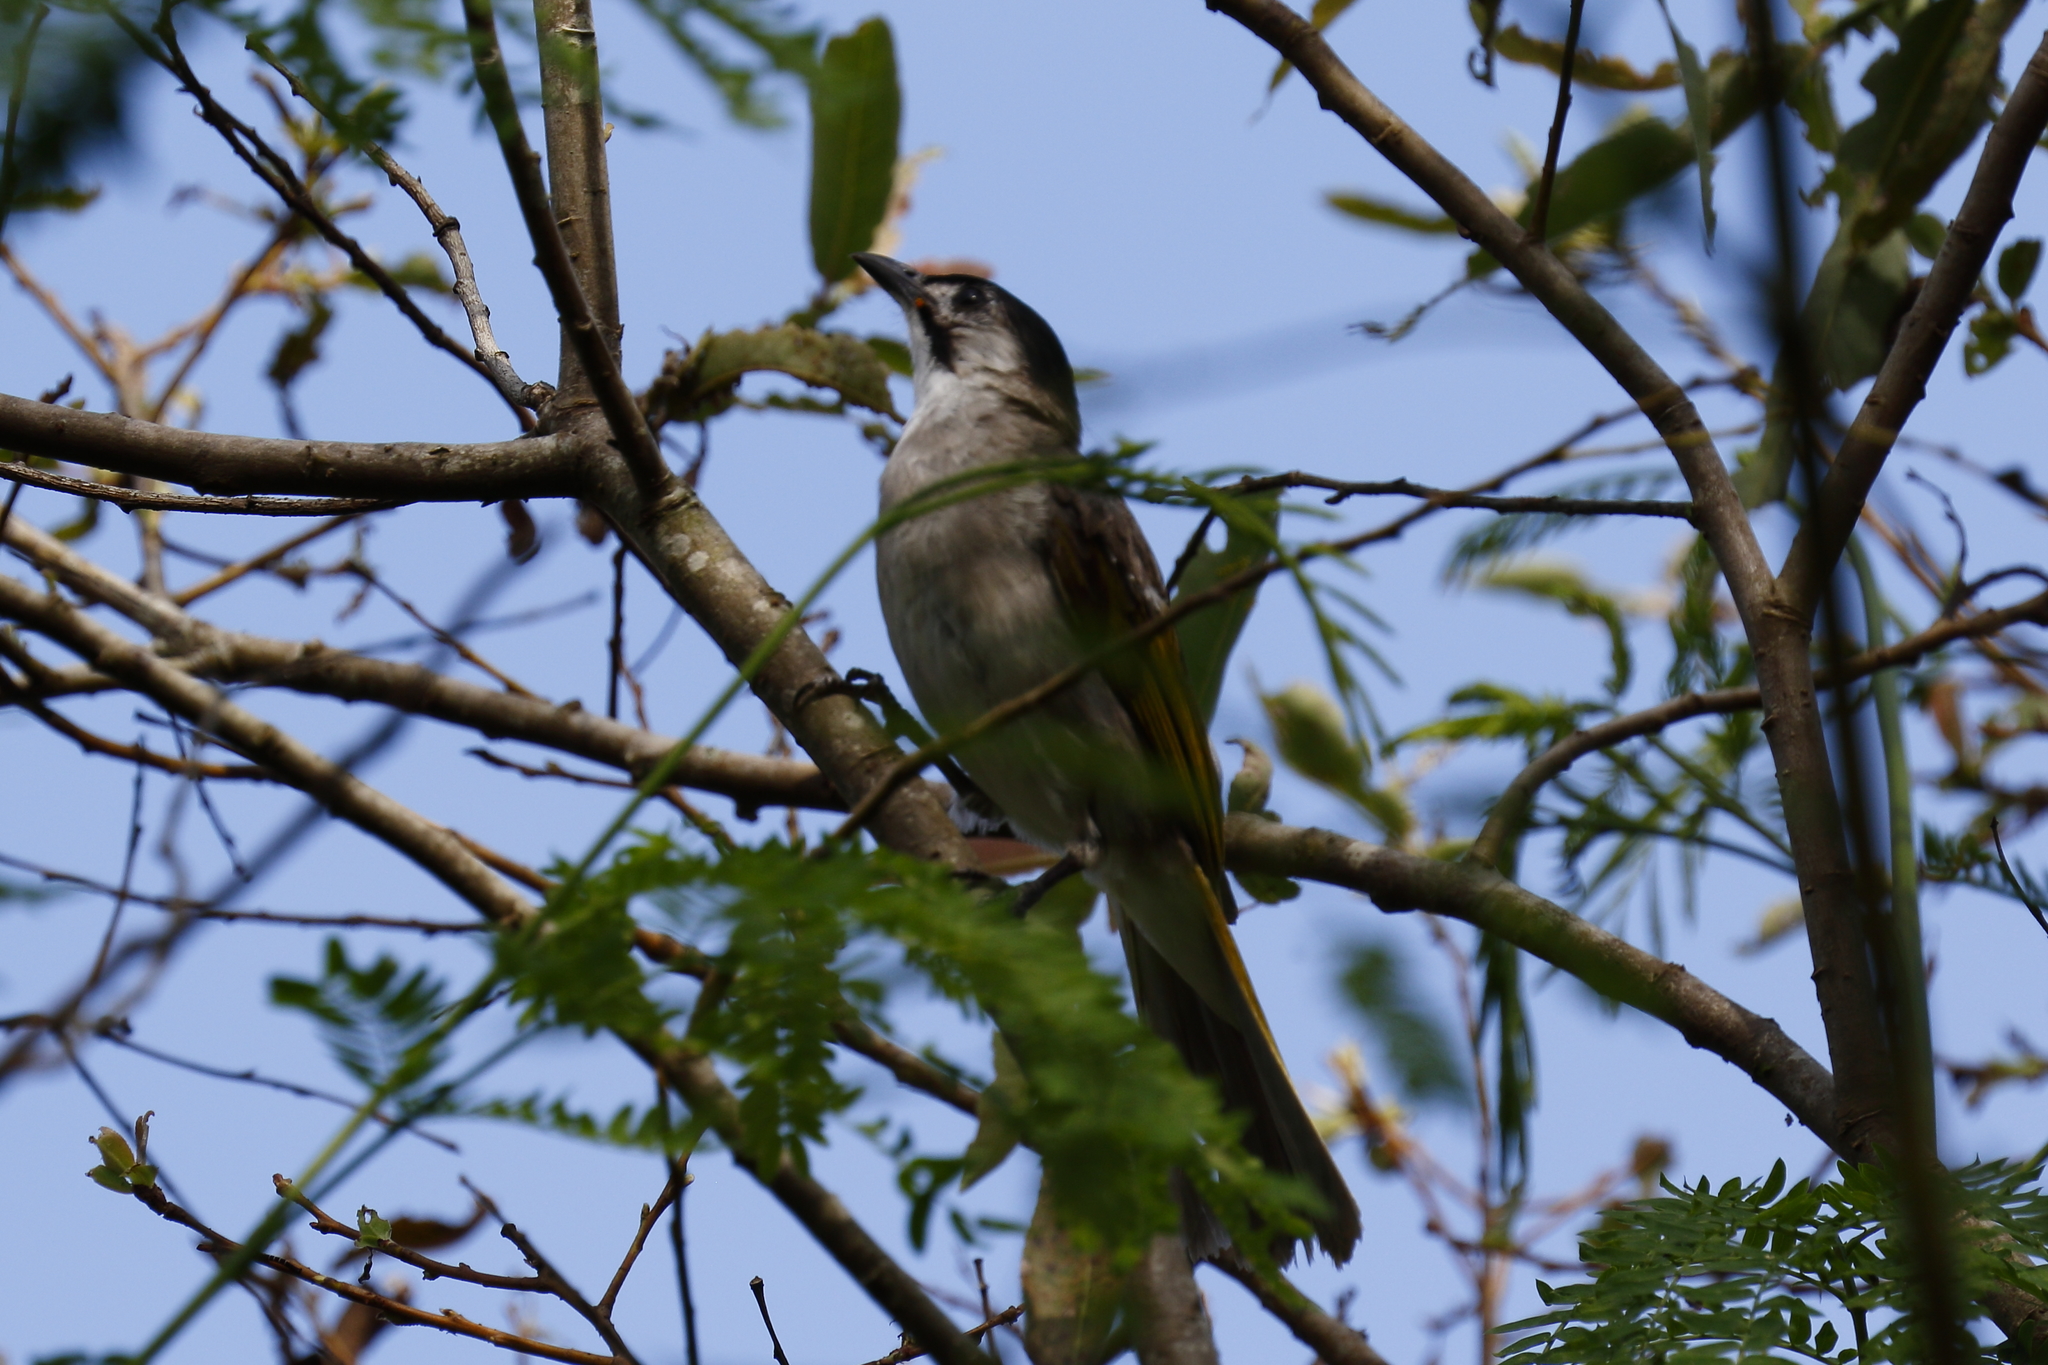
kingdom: Animalia
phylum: Chordata
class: Aves
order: Passeriformes
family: Pycnonotidae
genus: Pycnonotus
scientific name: Pycnonotus taivanus
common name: Styan's bulbul
